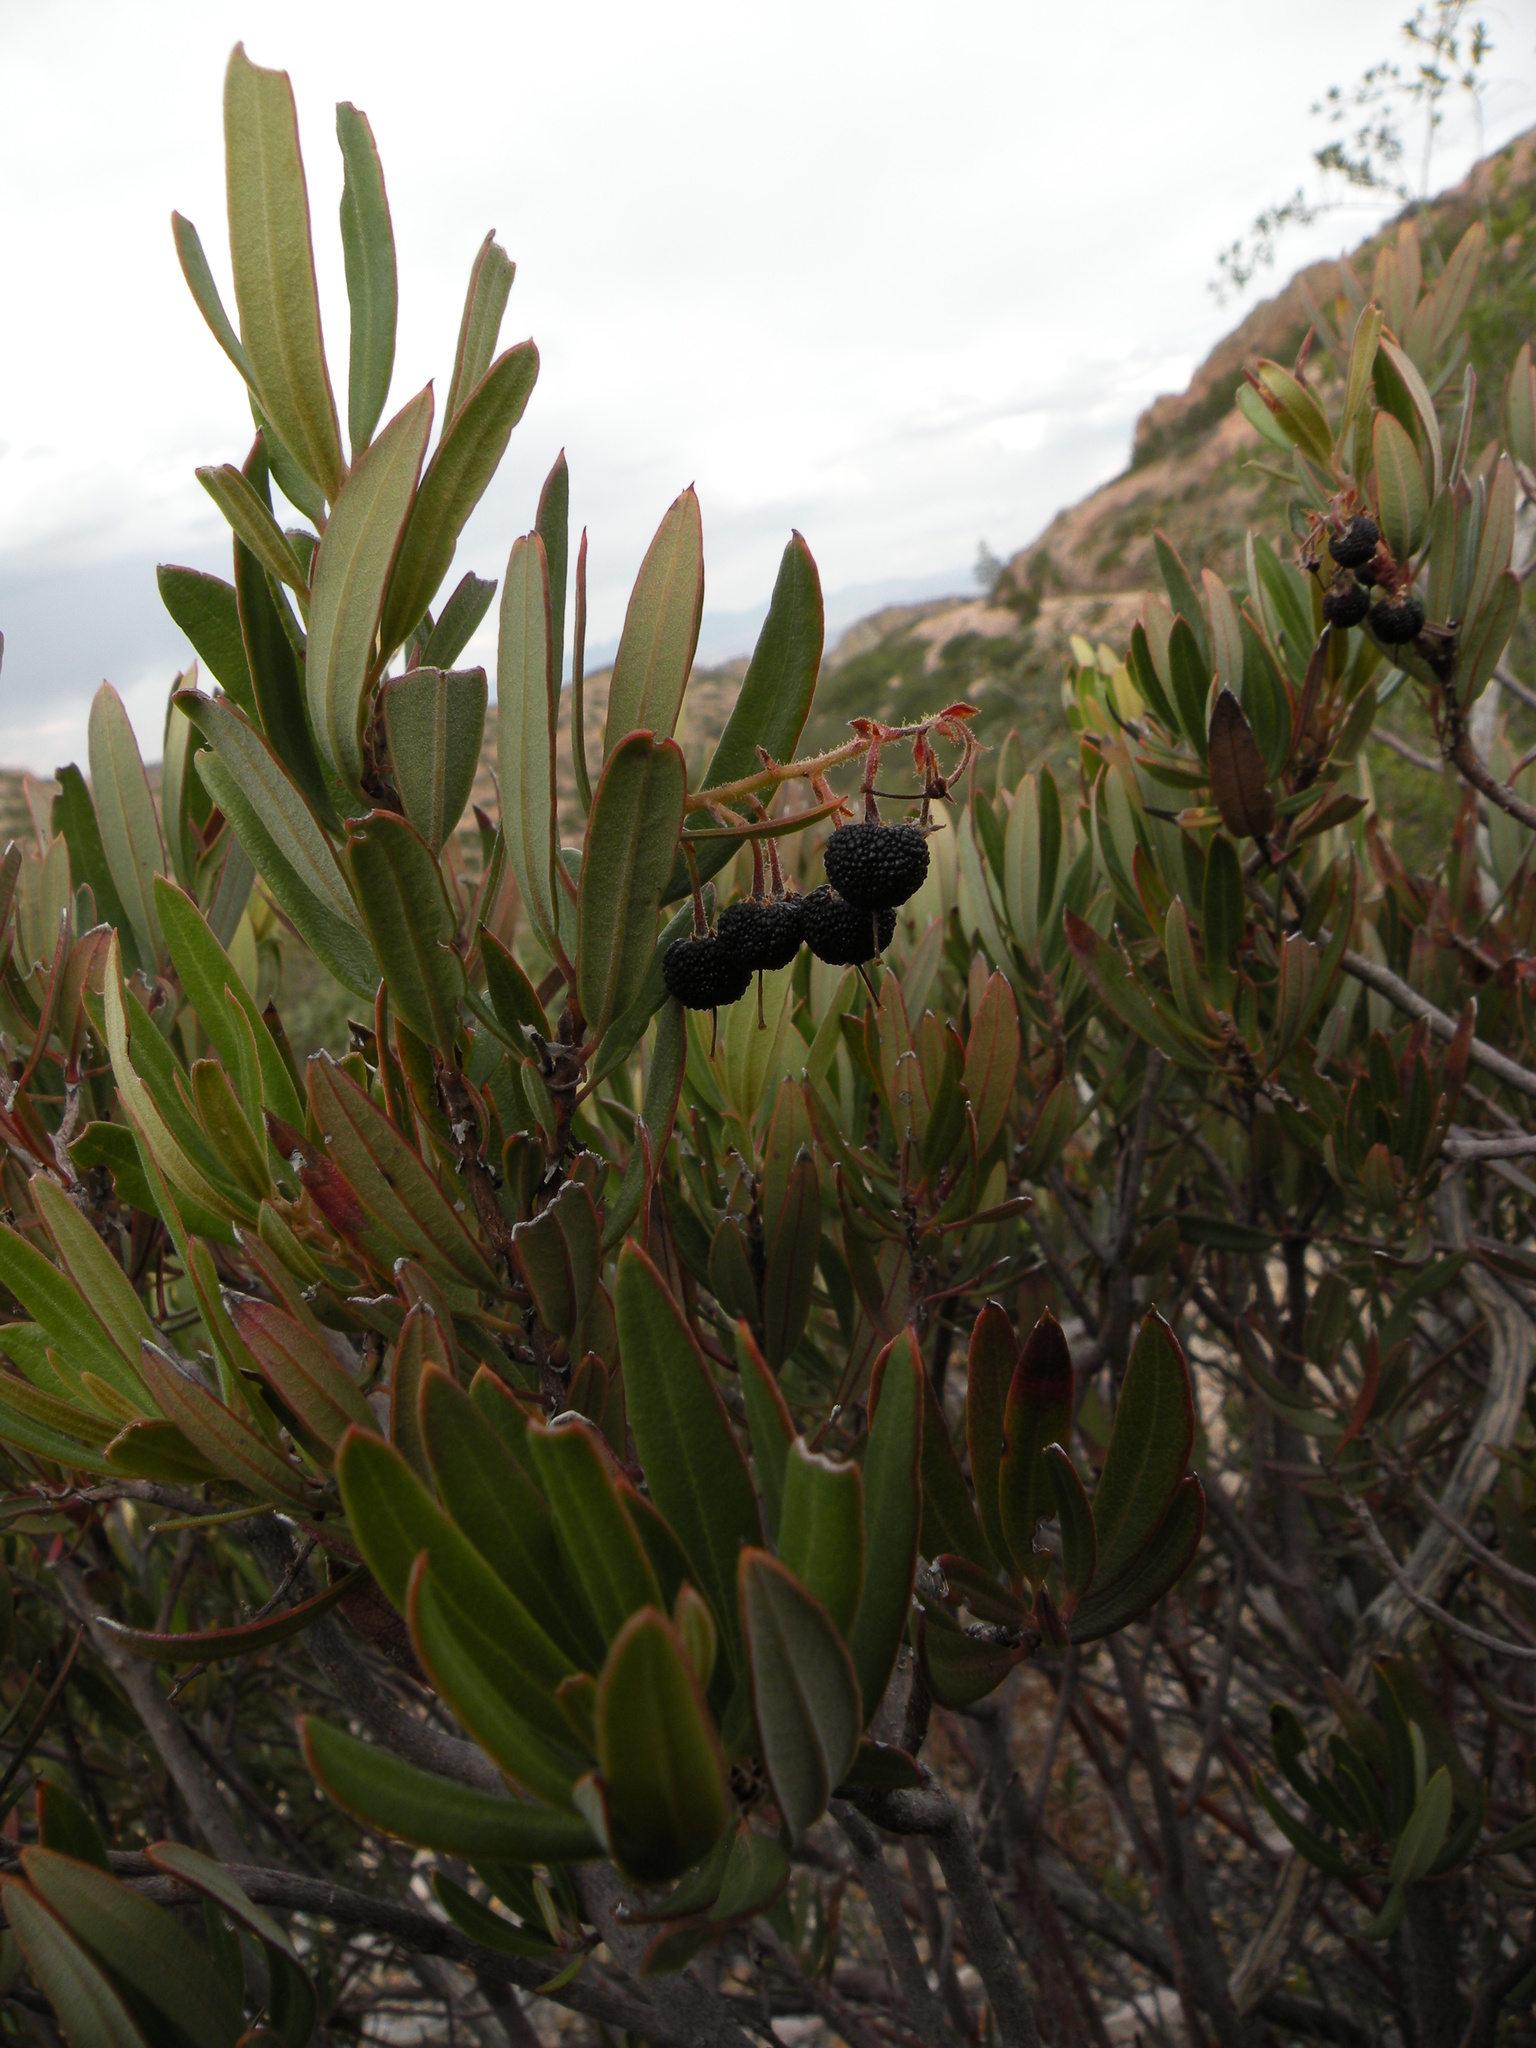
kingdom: Plantae
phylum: Tracheophyta
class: Magnoliopsida
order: Ericales
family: Ericaceae
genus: Comarostaphylis
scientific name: Comarostaphylis polifolia
